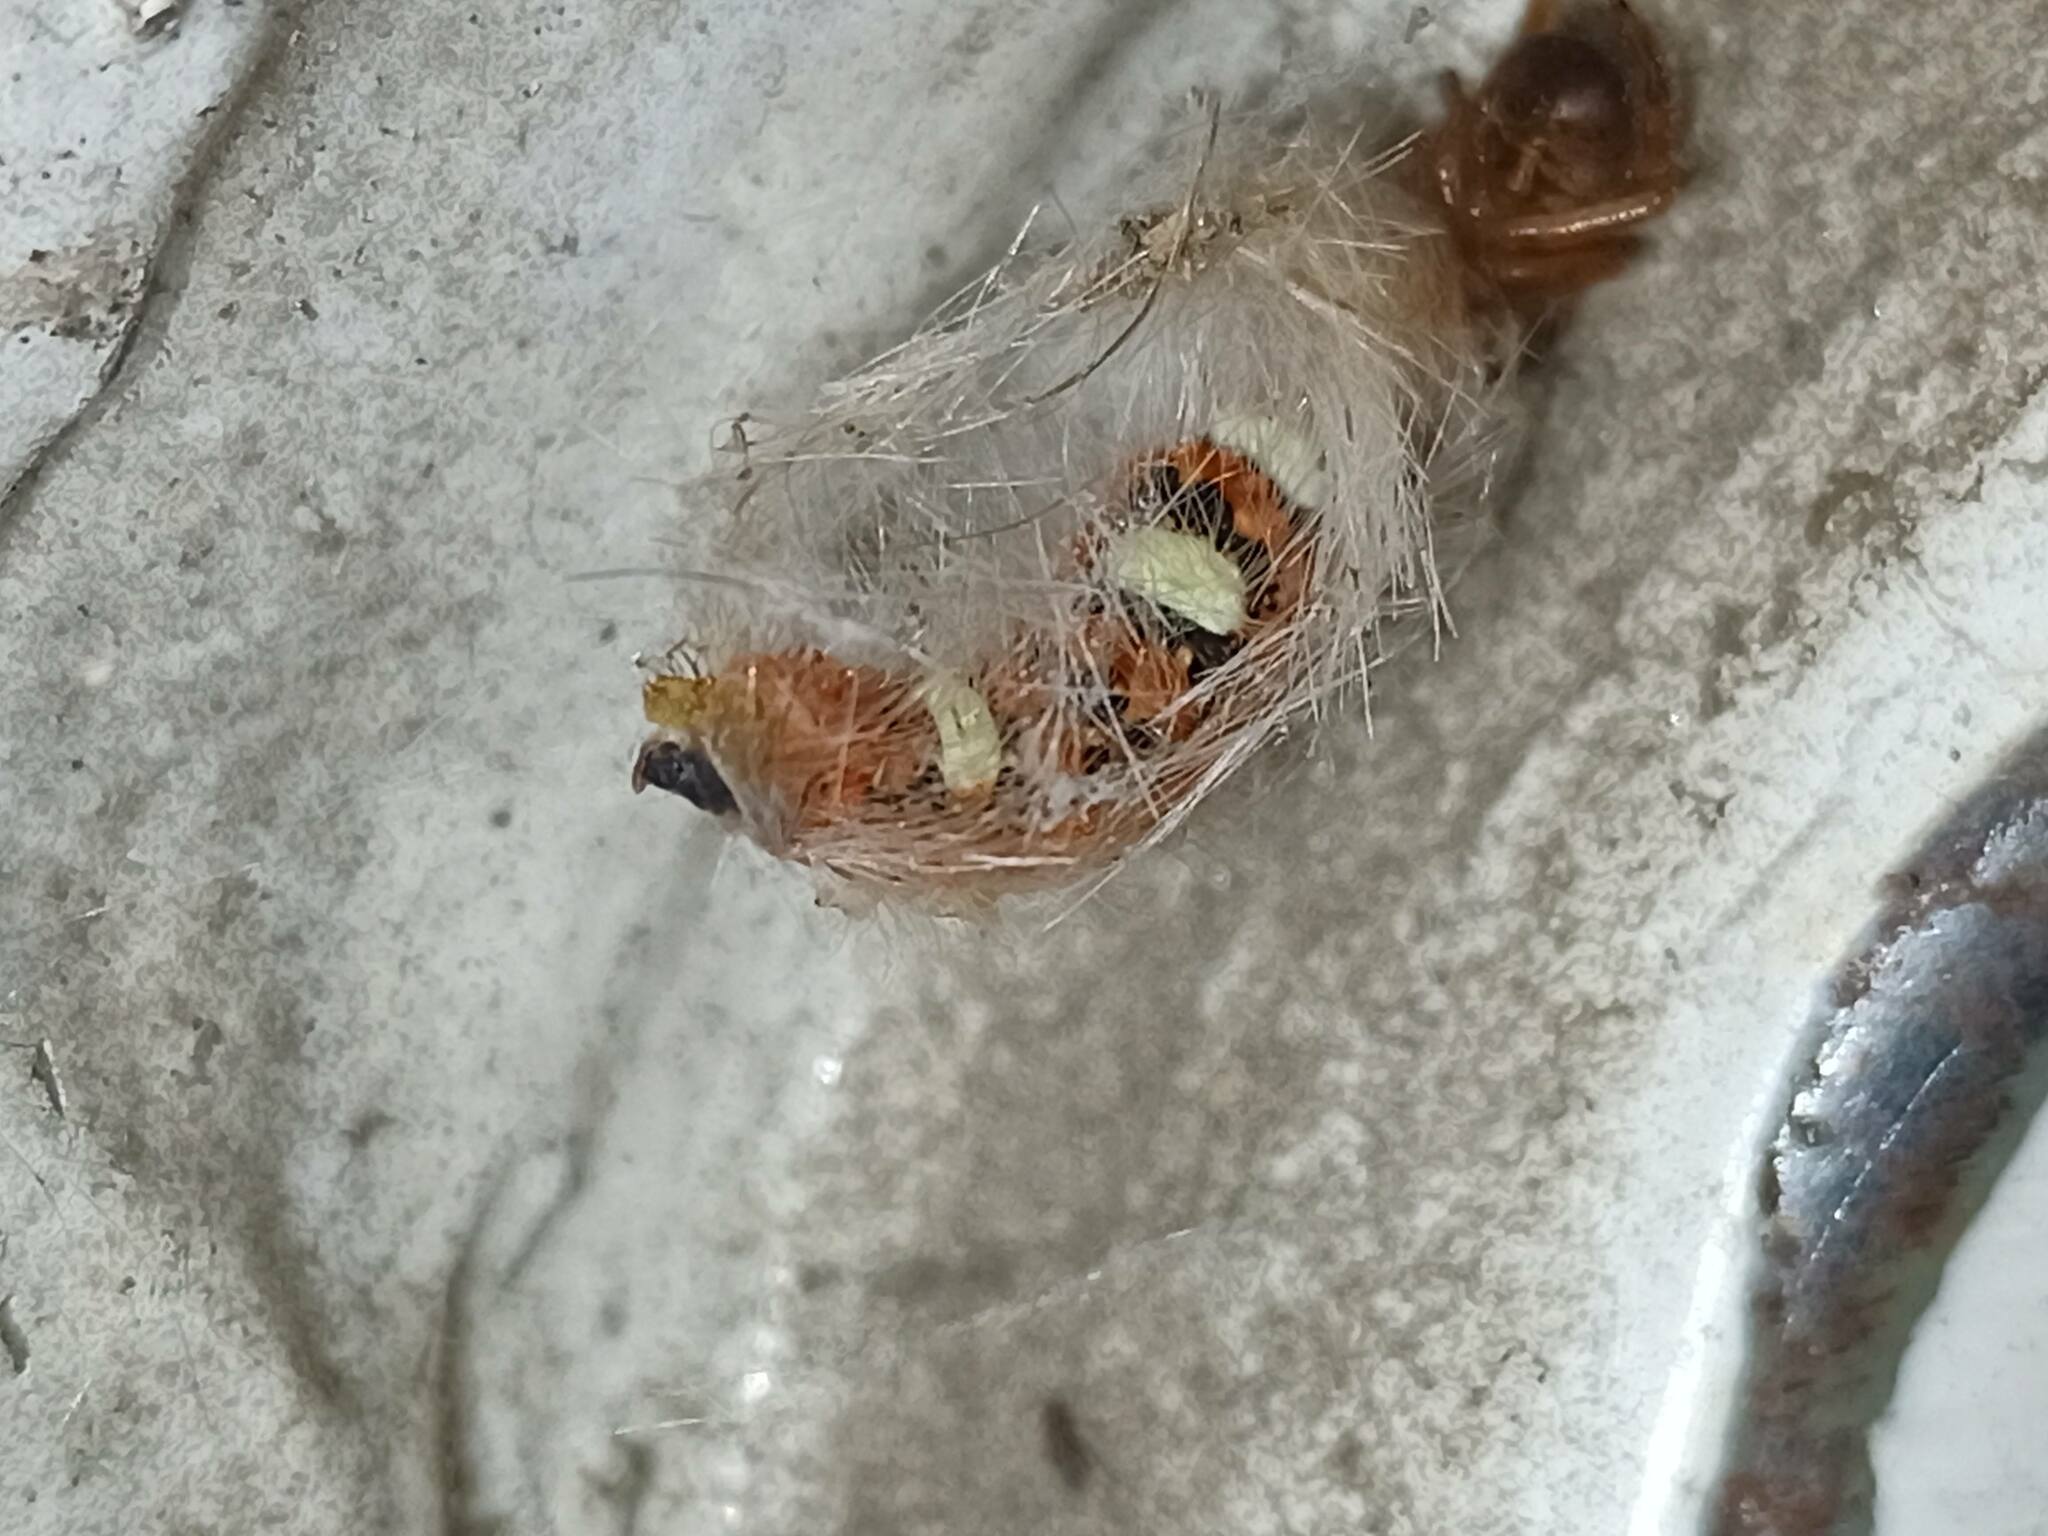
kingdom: Animalia
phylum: Arthropoda
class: Insecta
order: Lepidoptera
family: Noctuidae
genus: Moma
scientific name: Moma alpium
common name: Scarce merveille du jour
